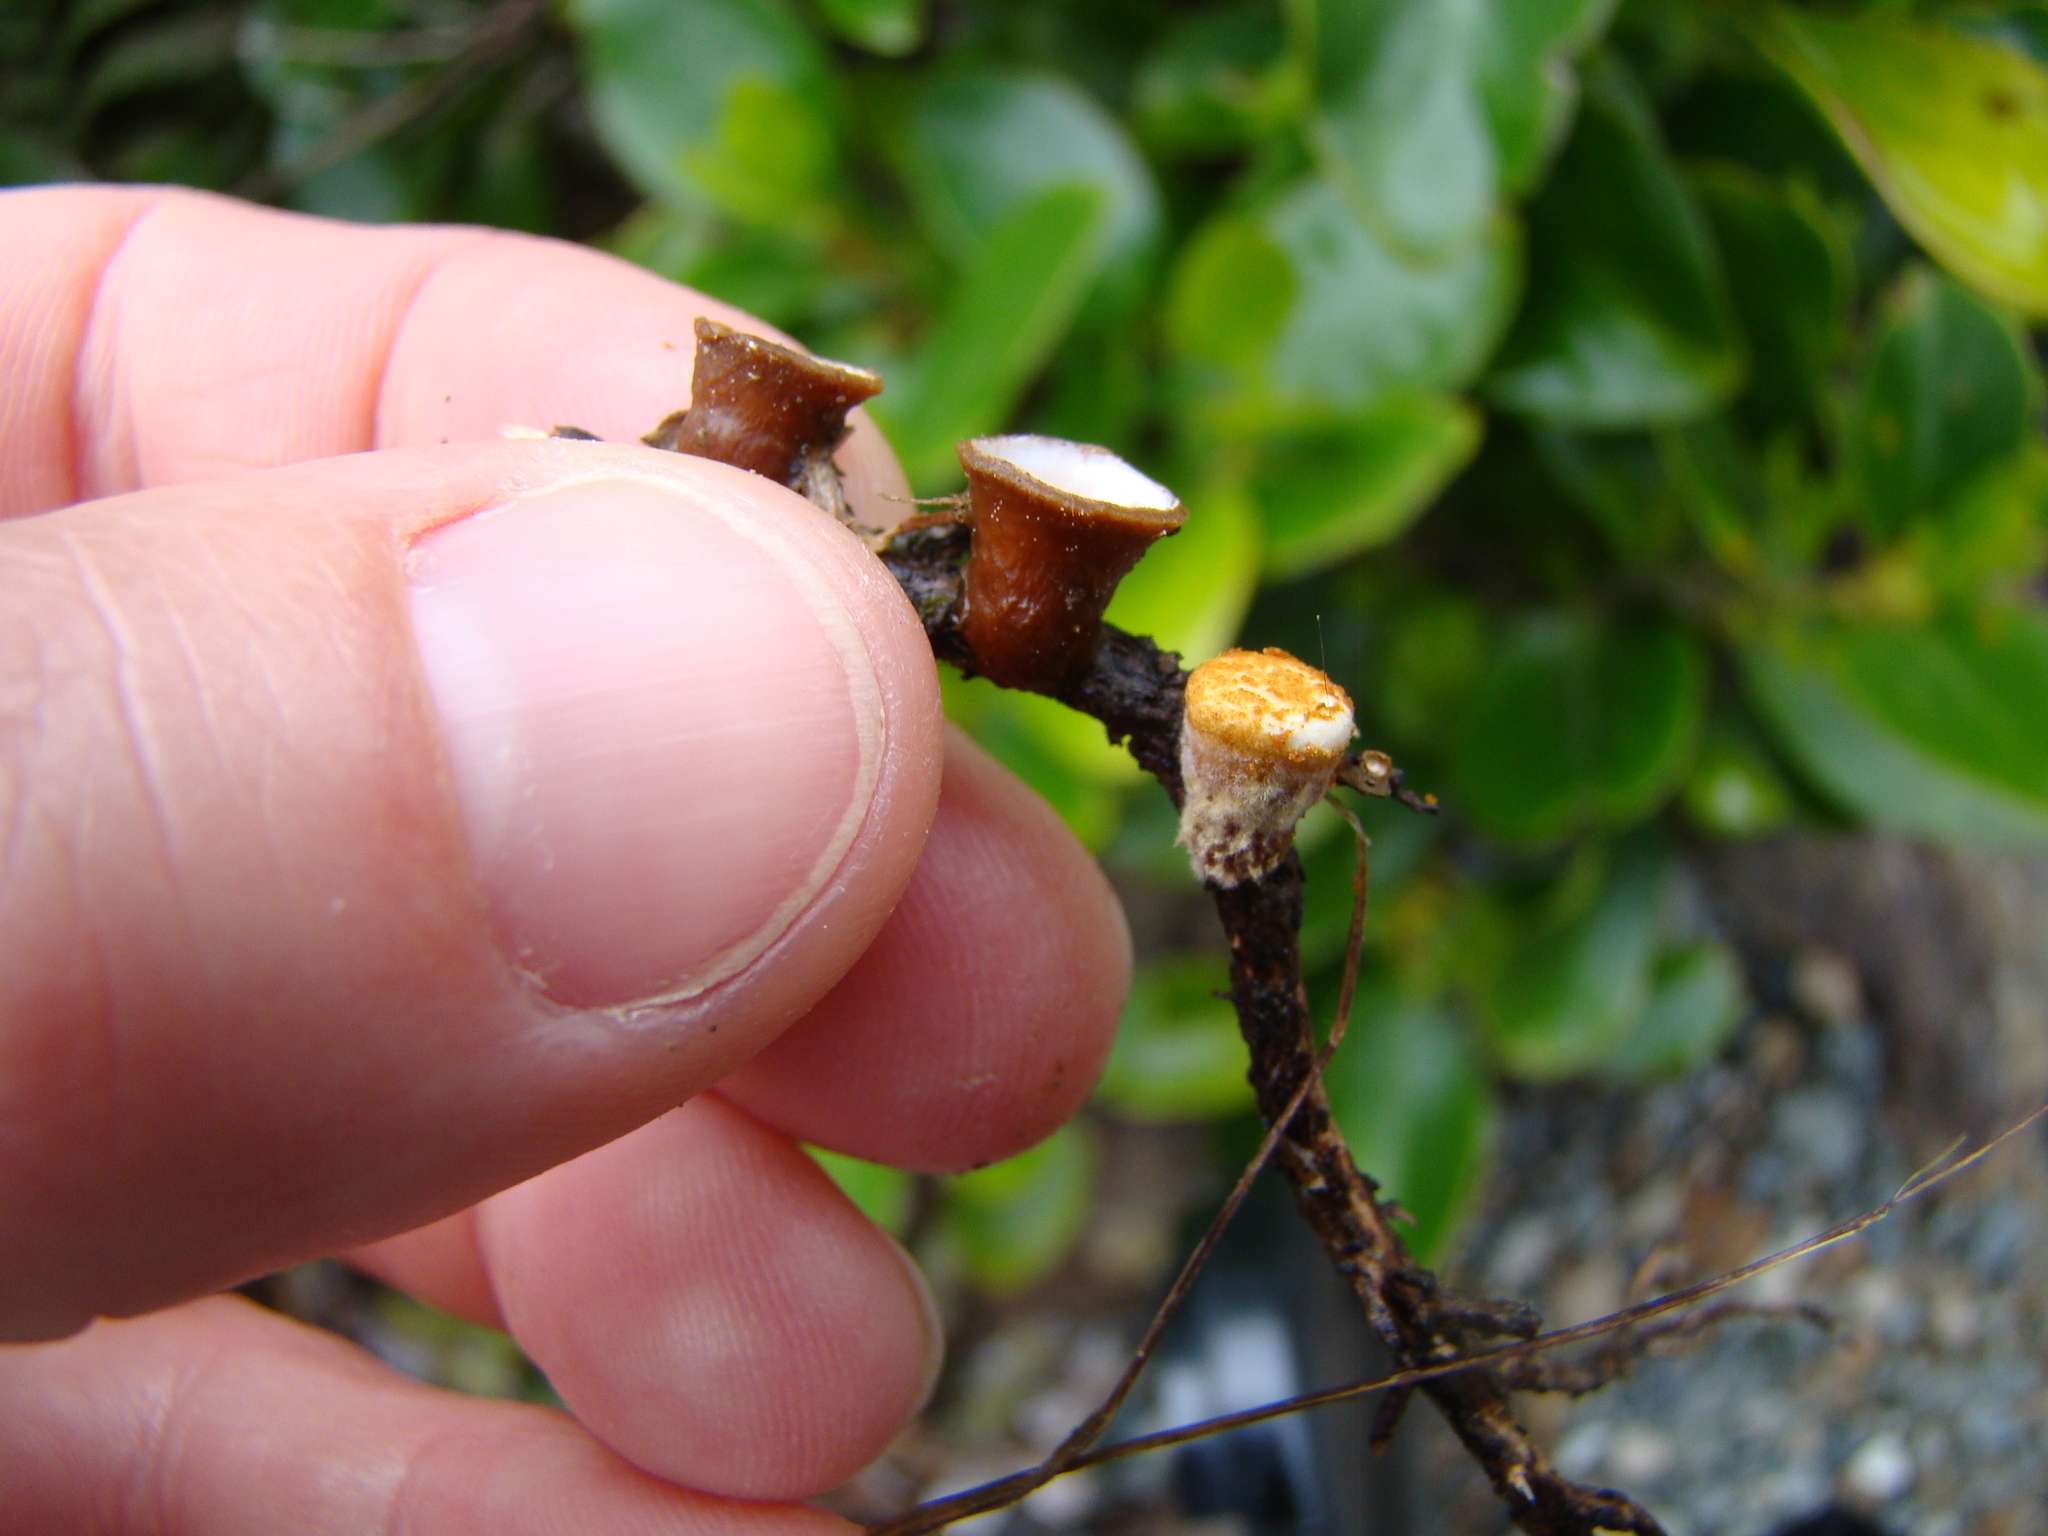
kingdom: Fungi
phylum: Basidiomycota
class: Agaricomycetes
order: Agaricales
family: Nidulariaceae
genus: Crucibulum
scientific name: Crucibulum simile
